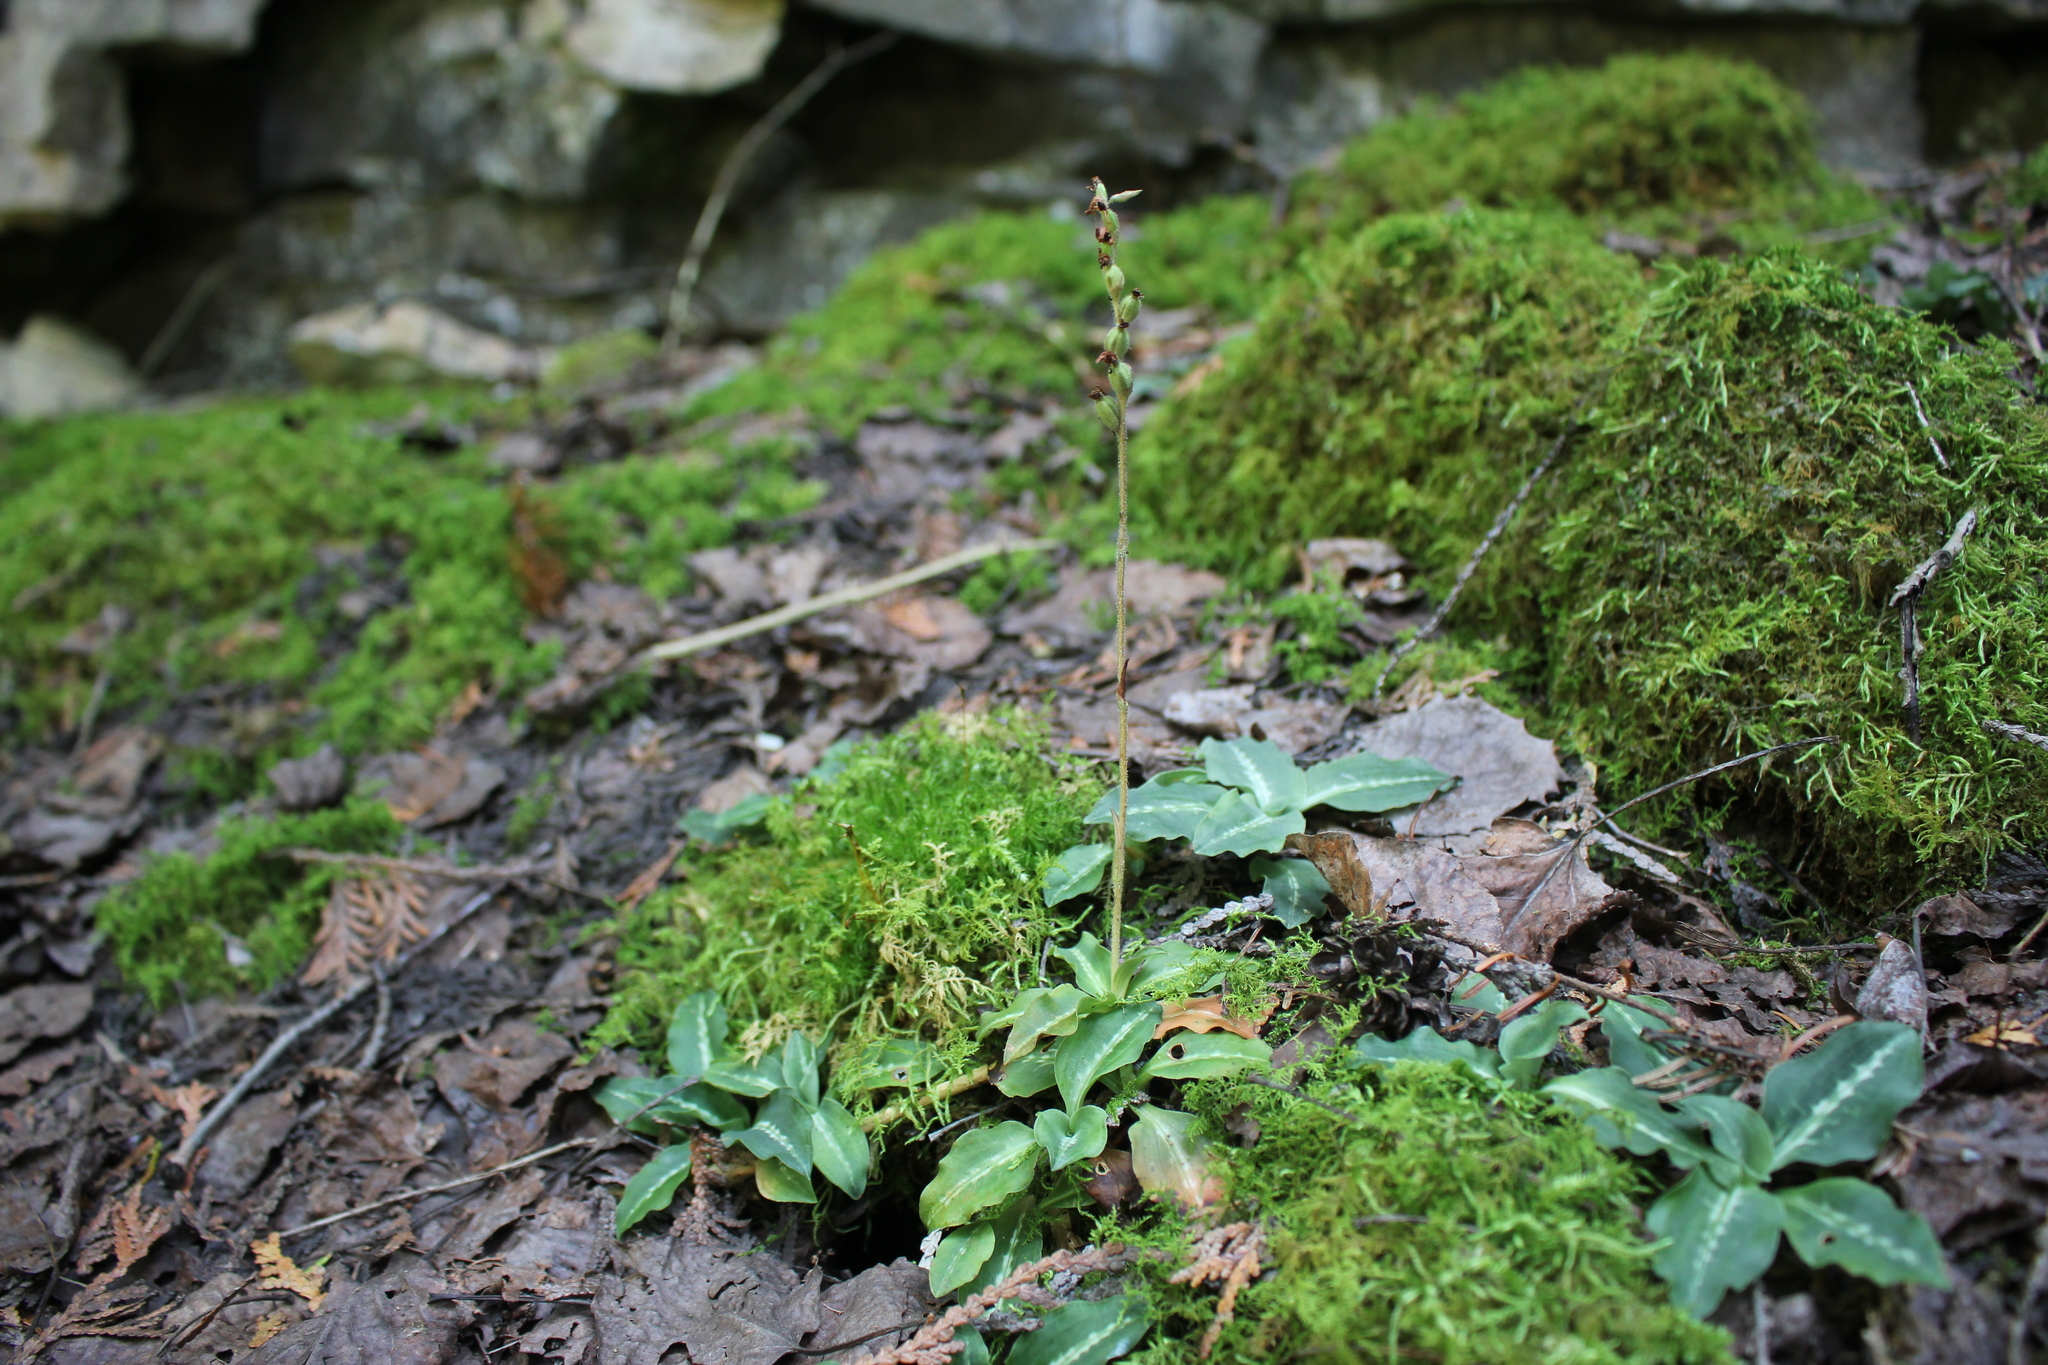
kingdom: Plantae
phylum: Tracheophyta
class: Liliopsida
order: Asparagales
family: Orchidaceae
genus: Goodyera
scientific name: Goodyera oblongifolia
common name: Giant rattlesnake-plantain
